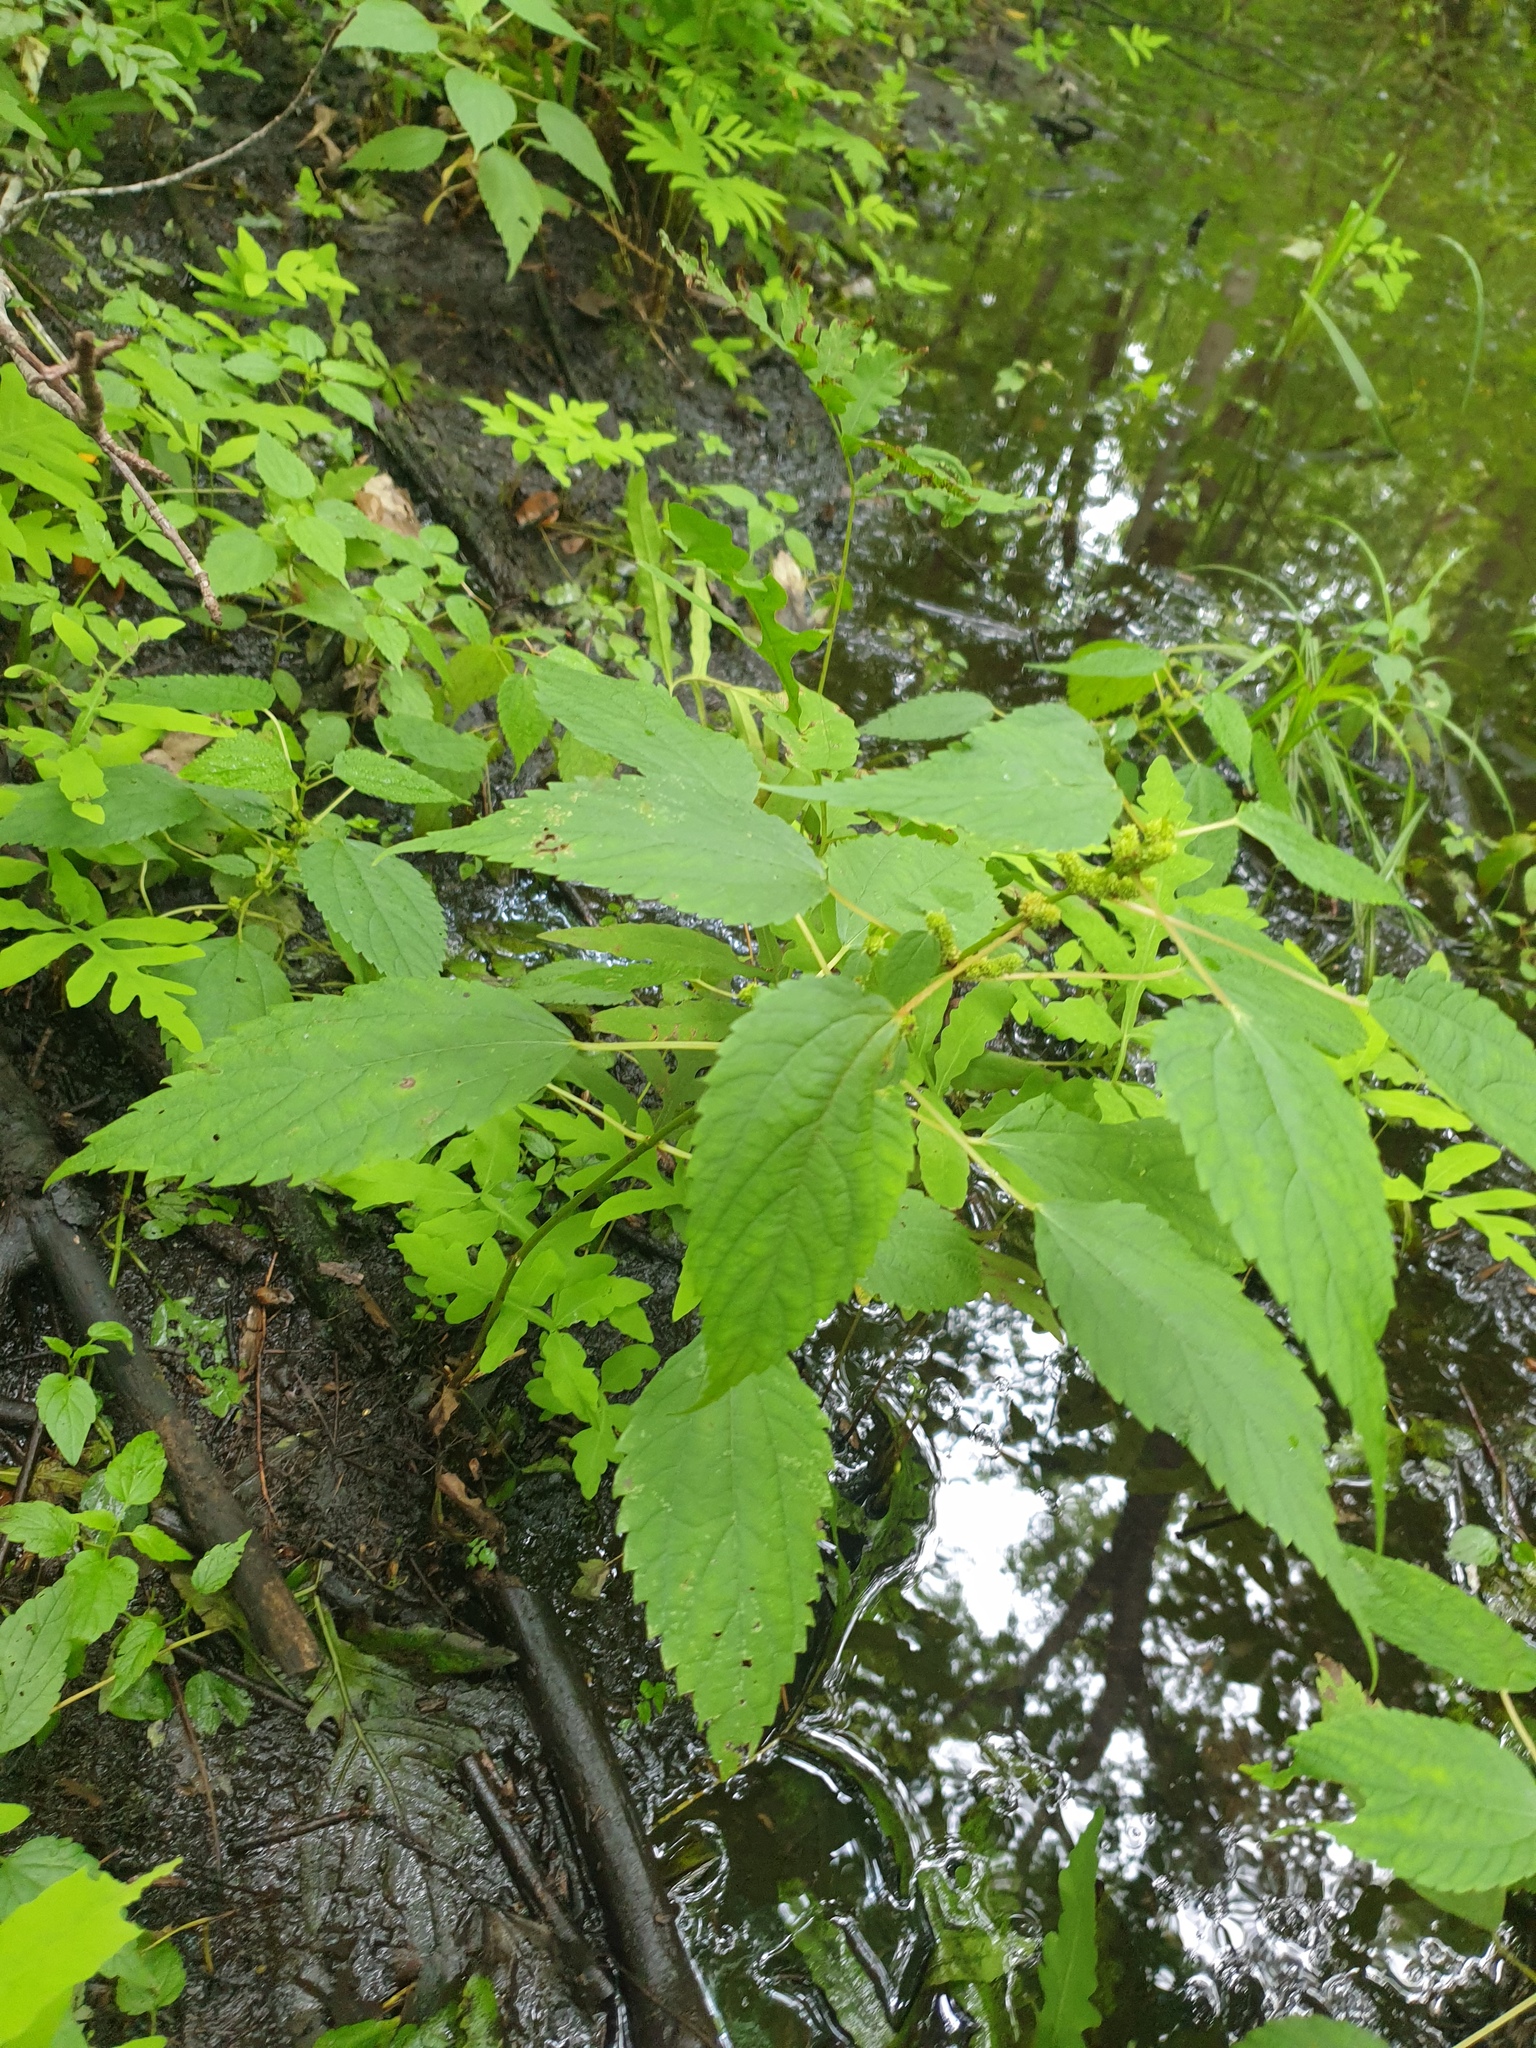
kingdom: Plantae
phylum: Tracheophyta
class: Magnoliopsida
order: Rosales
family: Urticaceae
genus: Boehmeria
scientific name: Boehmeria cylindrica
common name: Bog-hemp
